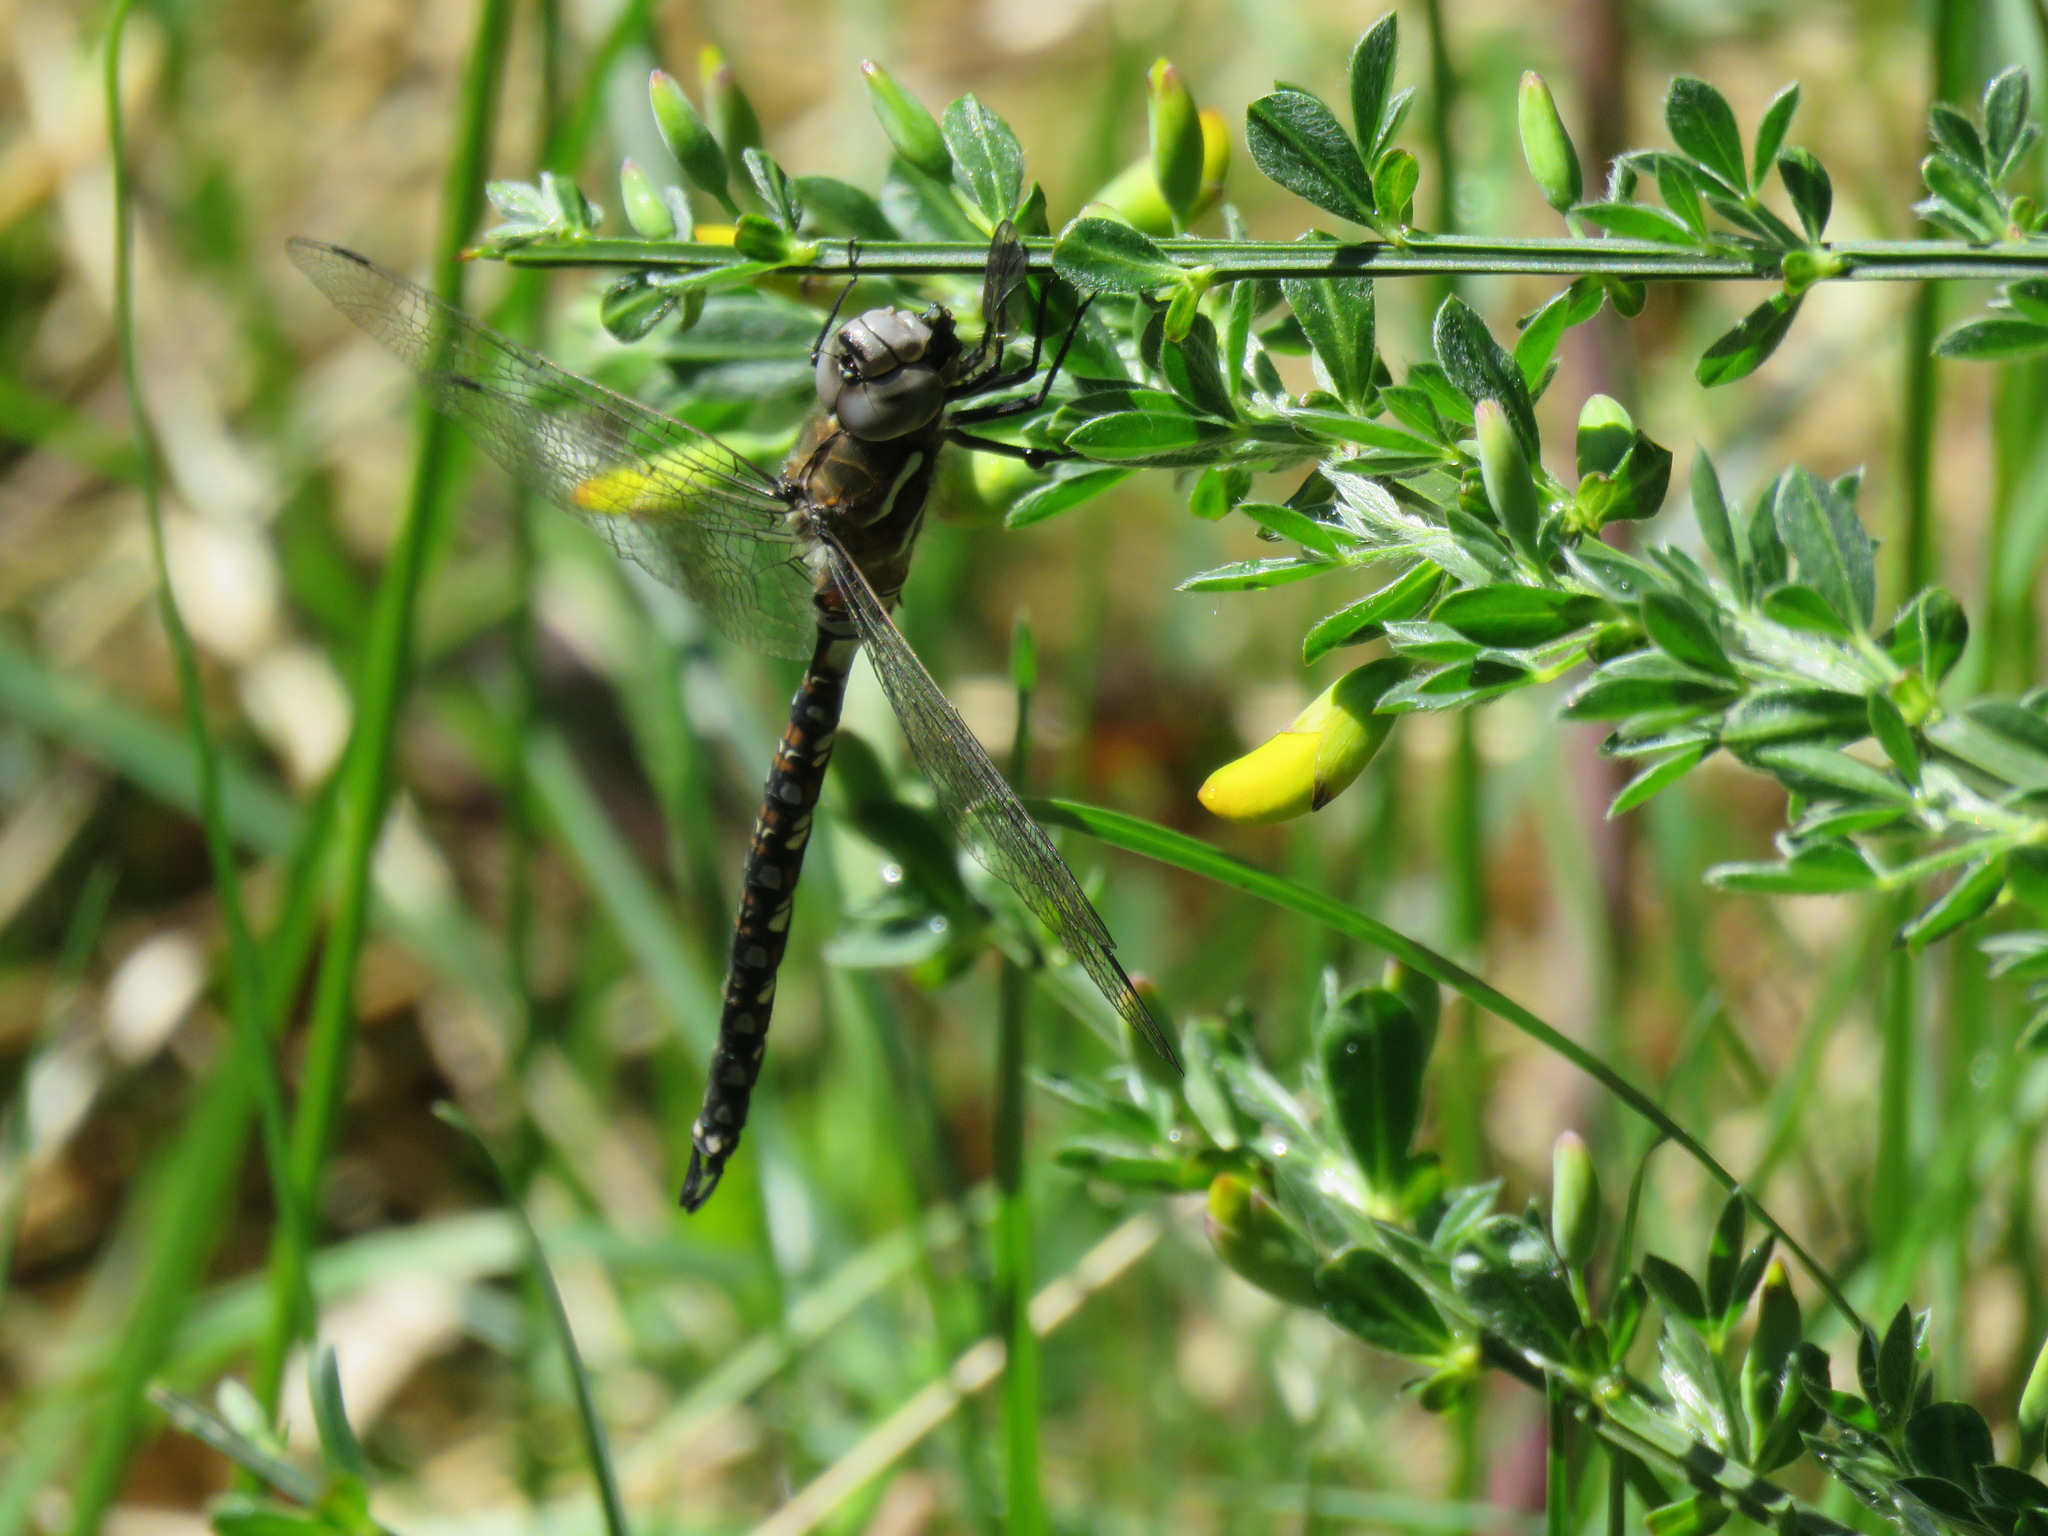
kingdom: Animalia
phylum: Arthropoda
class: Insecta
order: Odonata
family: Aeshnidae
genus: Rhionaeschna
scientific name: Rhionaeschna californica
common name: California darner
